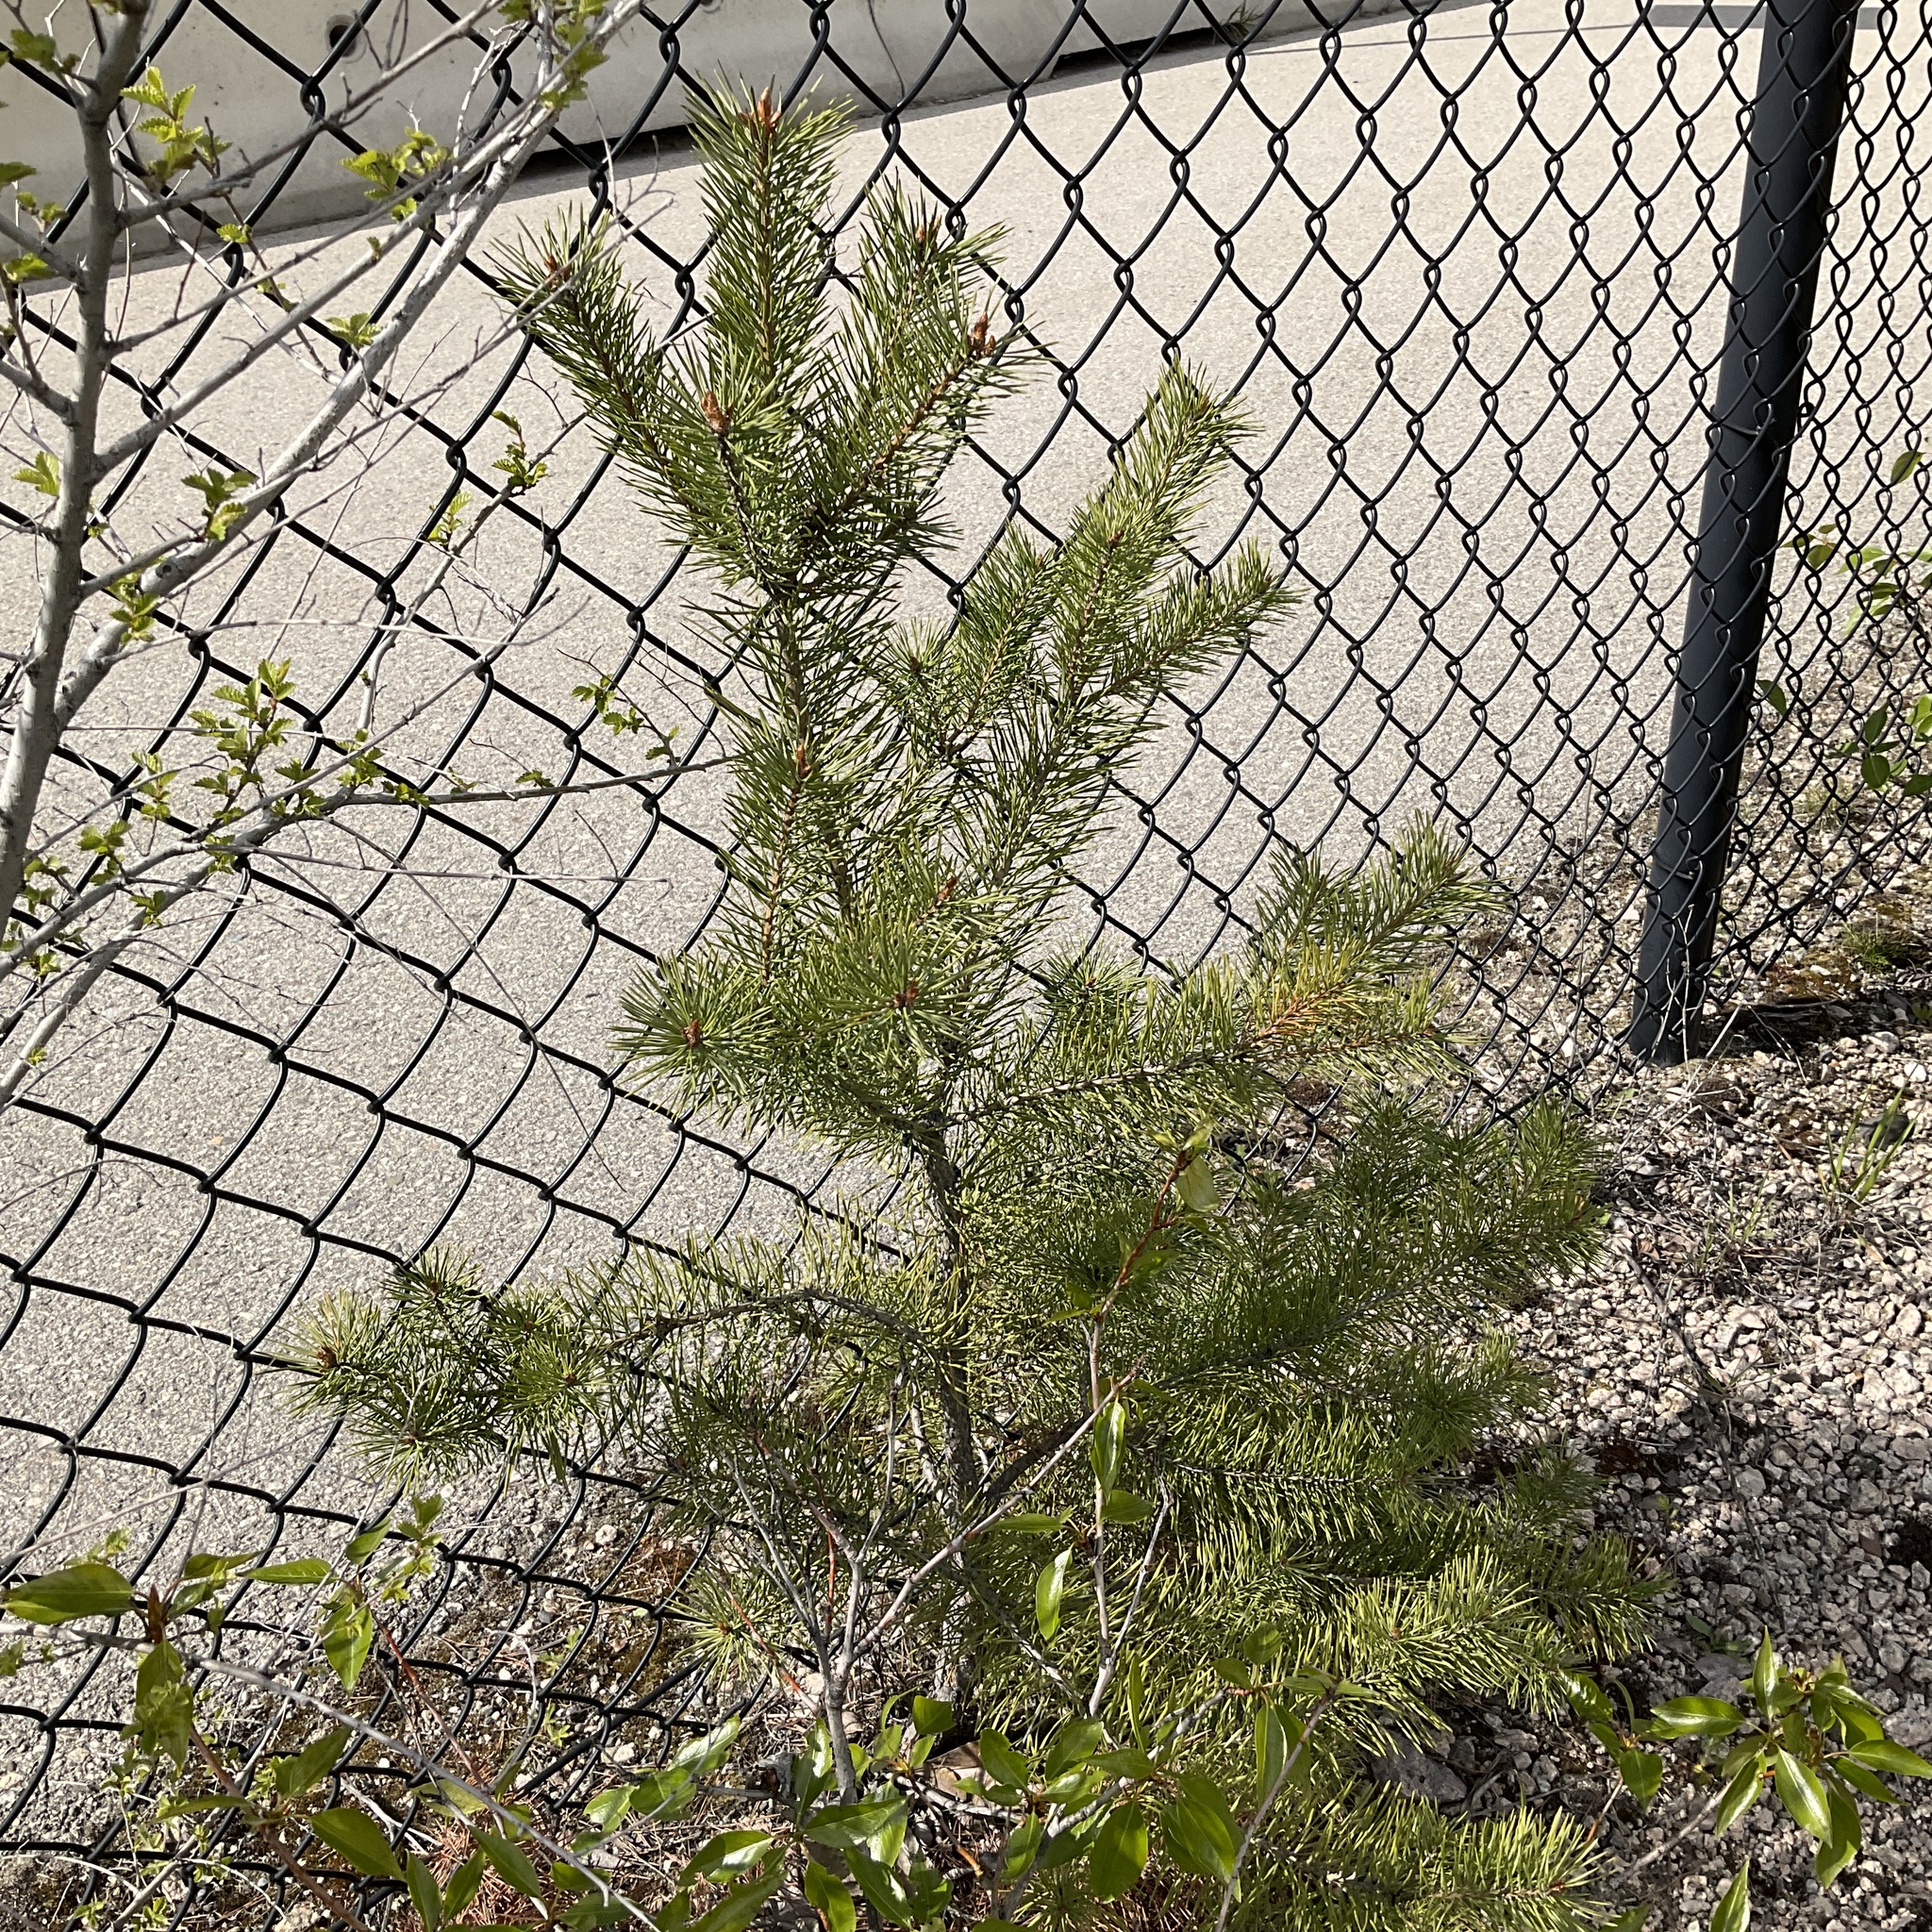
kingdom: Plantae
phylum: Tracheophyta
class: Pinopsida
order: Pinales
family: Pinaceae
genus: Pinus
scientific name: Pinus contorta
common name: Lodgepole pine
